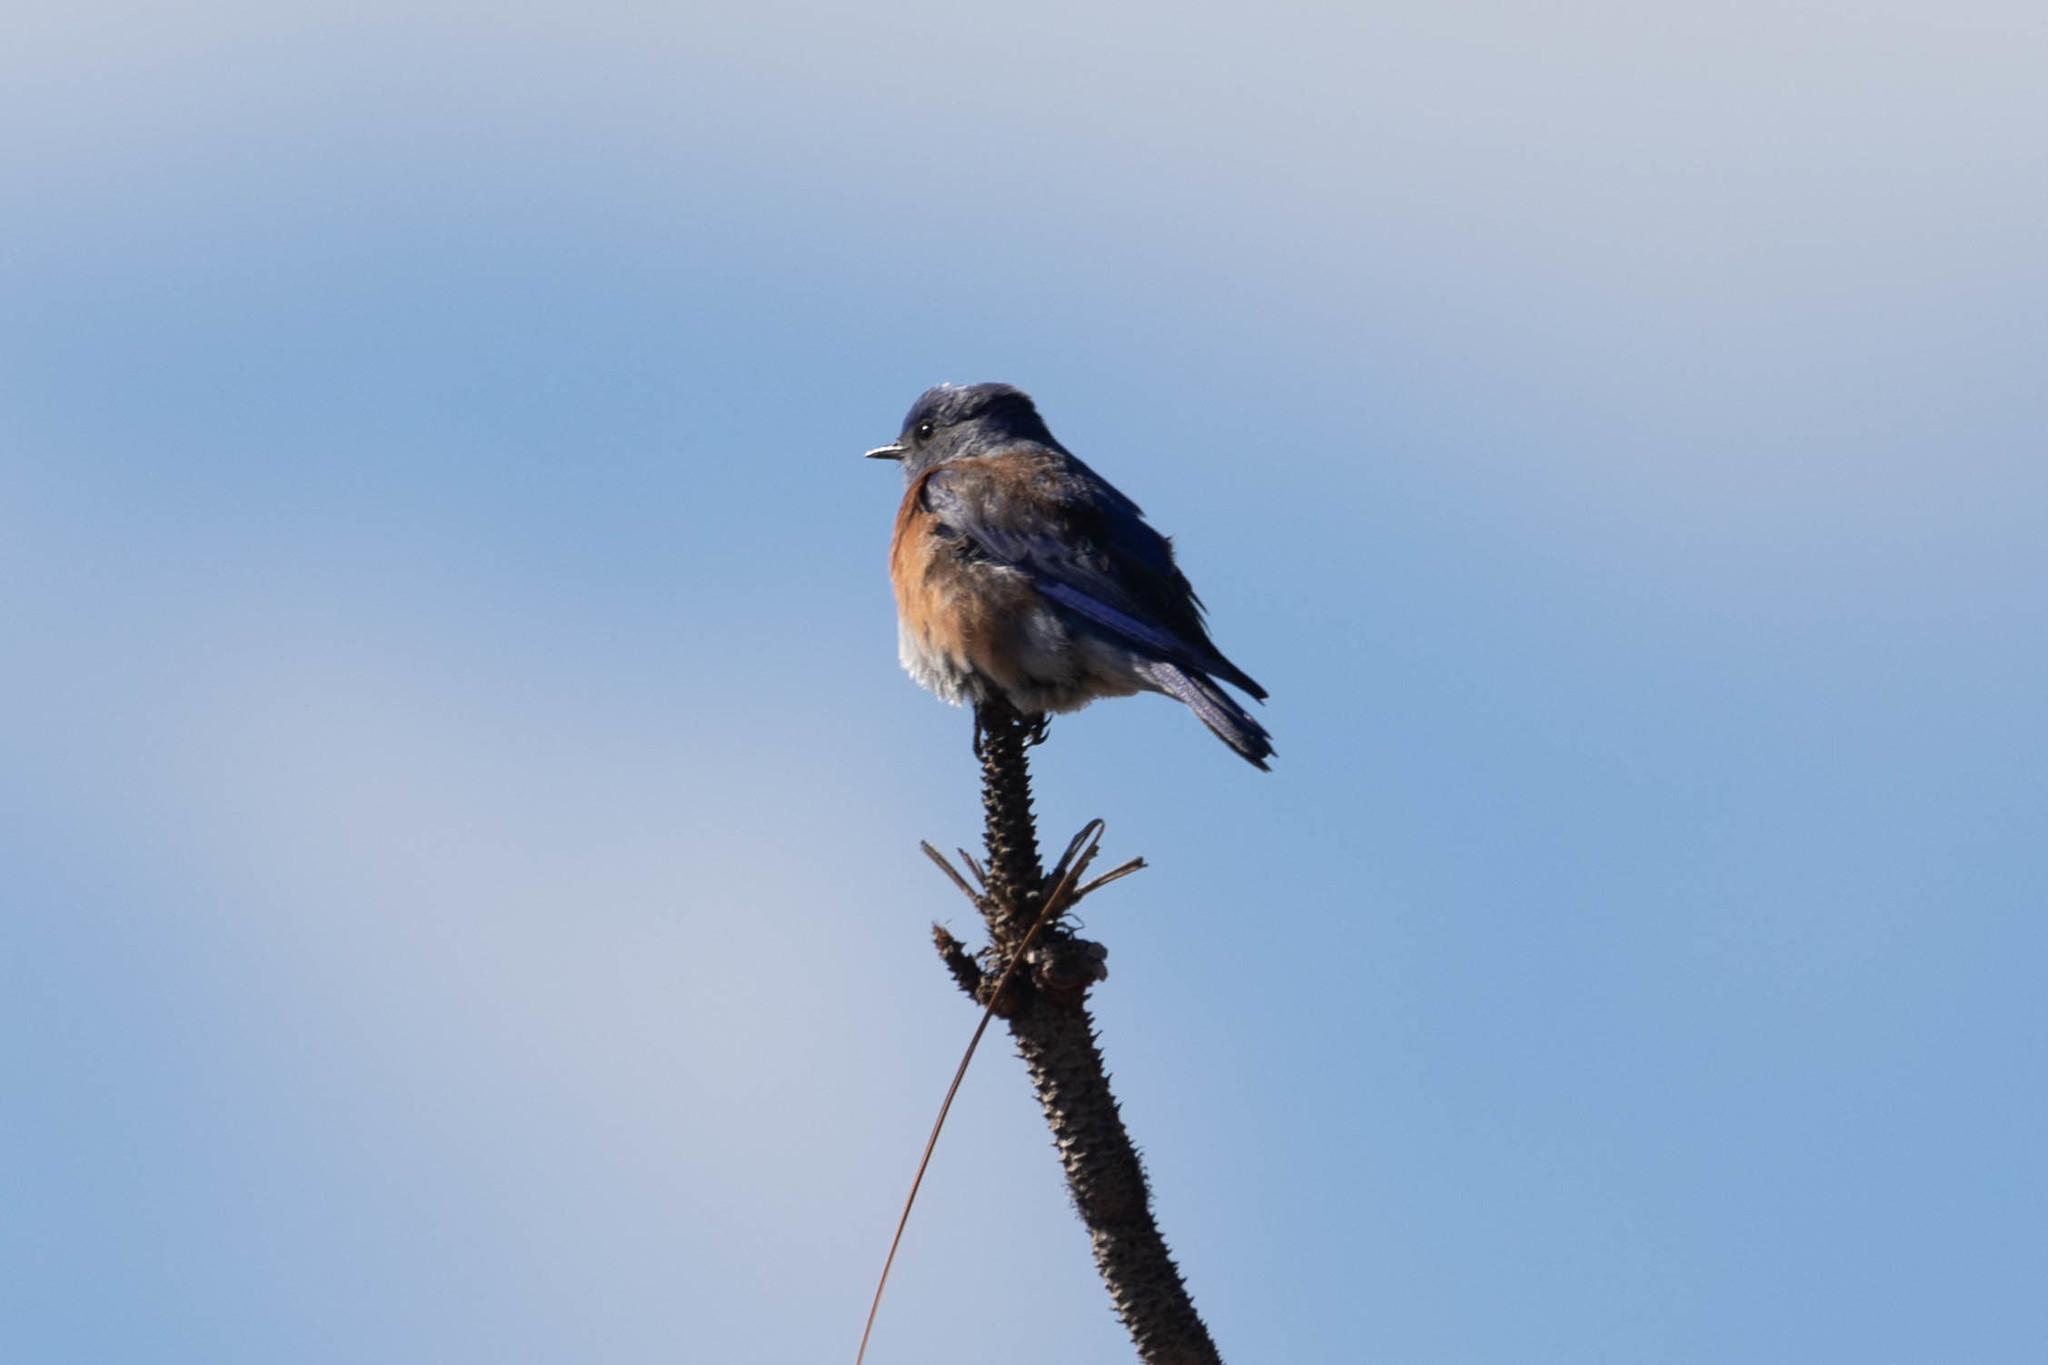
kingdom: Animalia
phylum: Chordata
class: Aves
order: Passeriformes
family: Turdidae
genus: Sialia
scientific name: Sialia mexicana
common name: Western bluebird
